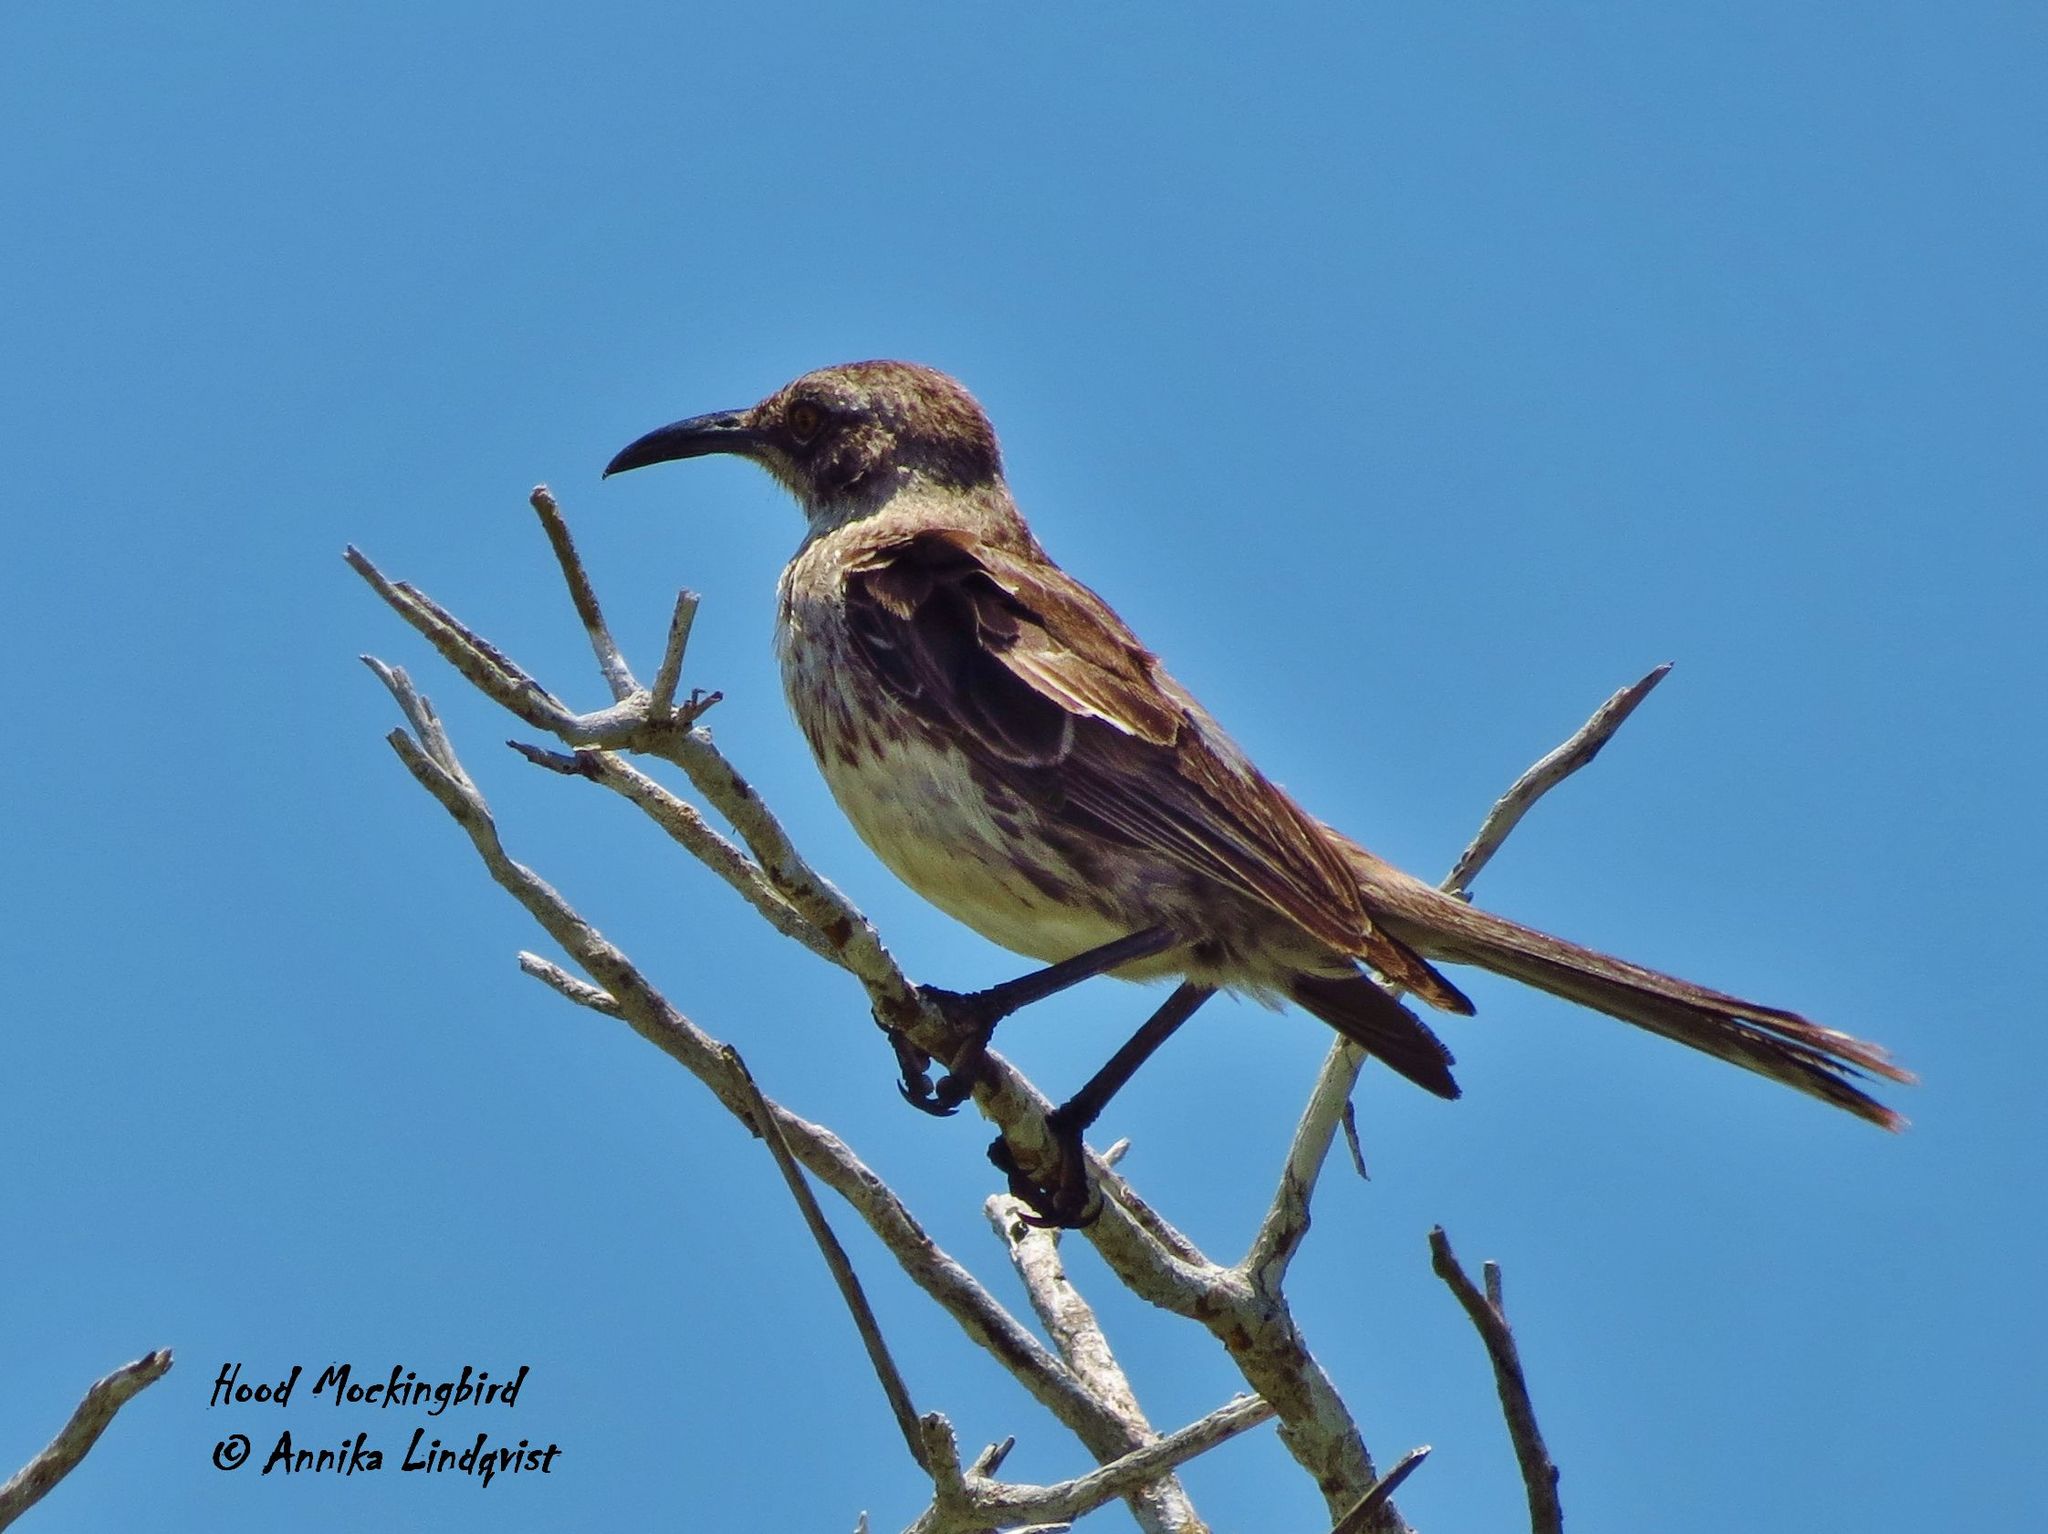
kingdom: Animalia
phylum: Chordata
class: Aves
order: Passeriformes
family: Mimidae
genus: Mimus
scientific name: Mimus macdonaldi
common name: Espanola mockingbird
